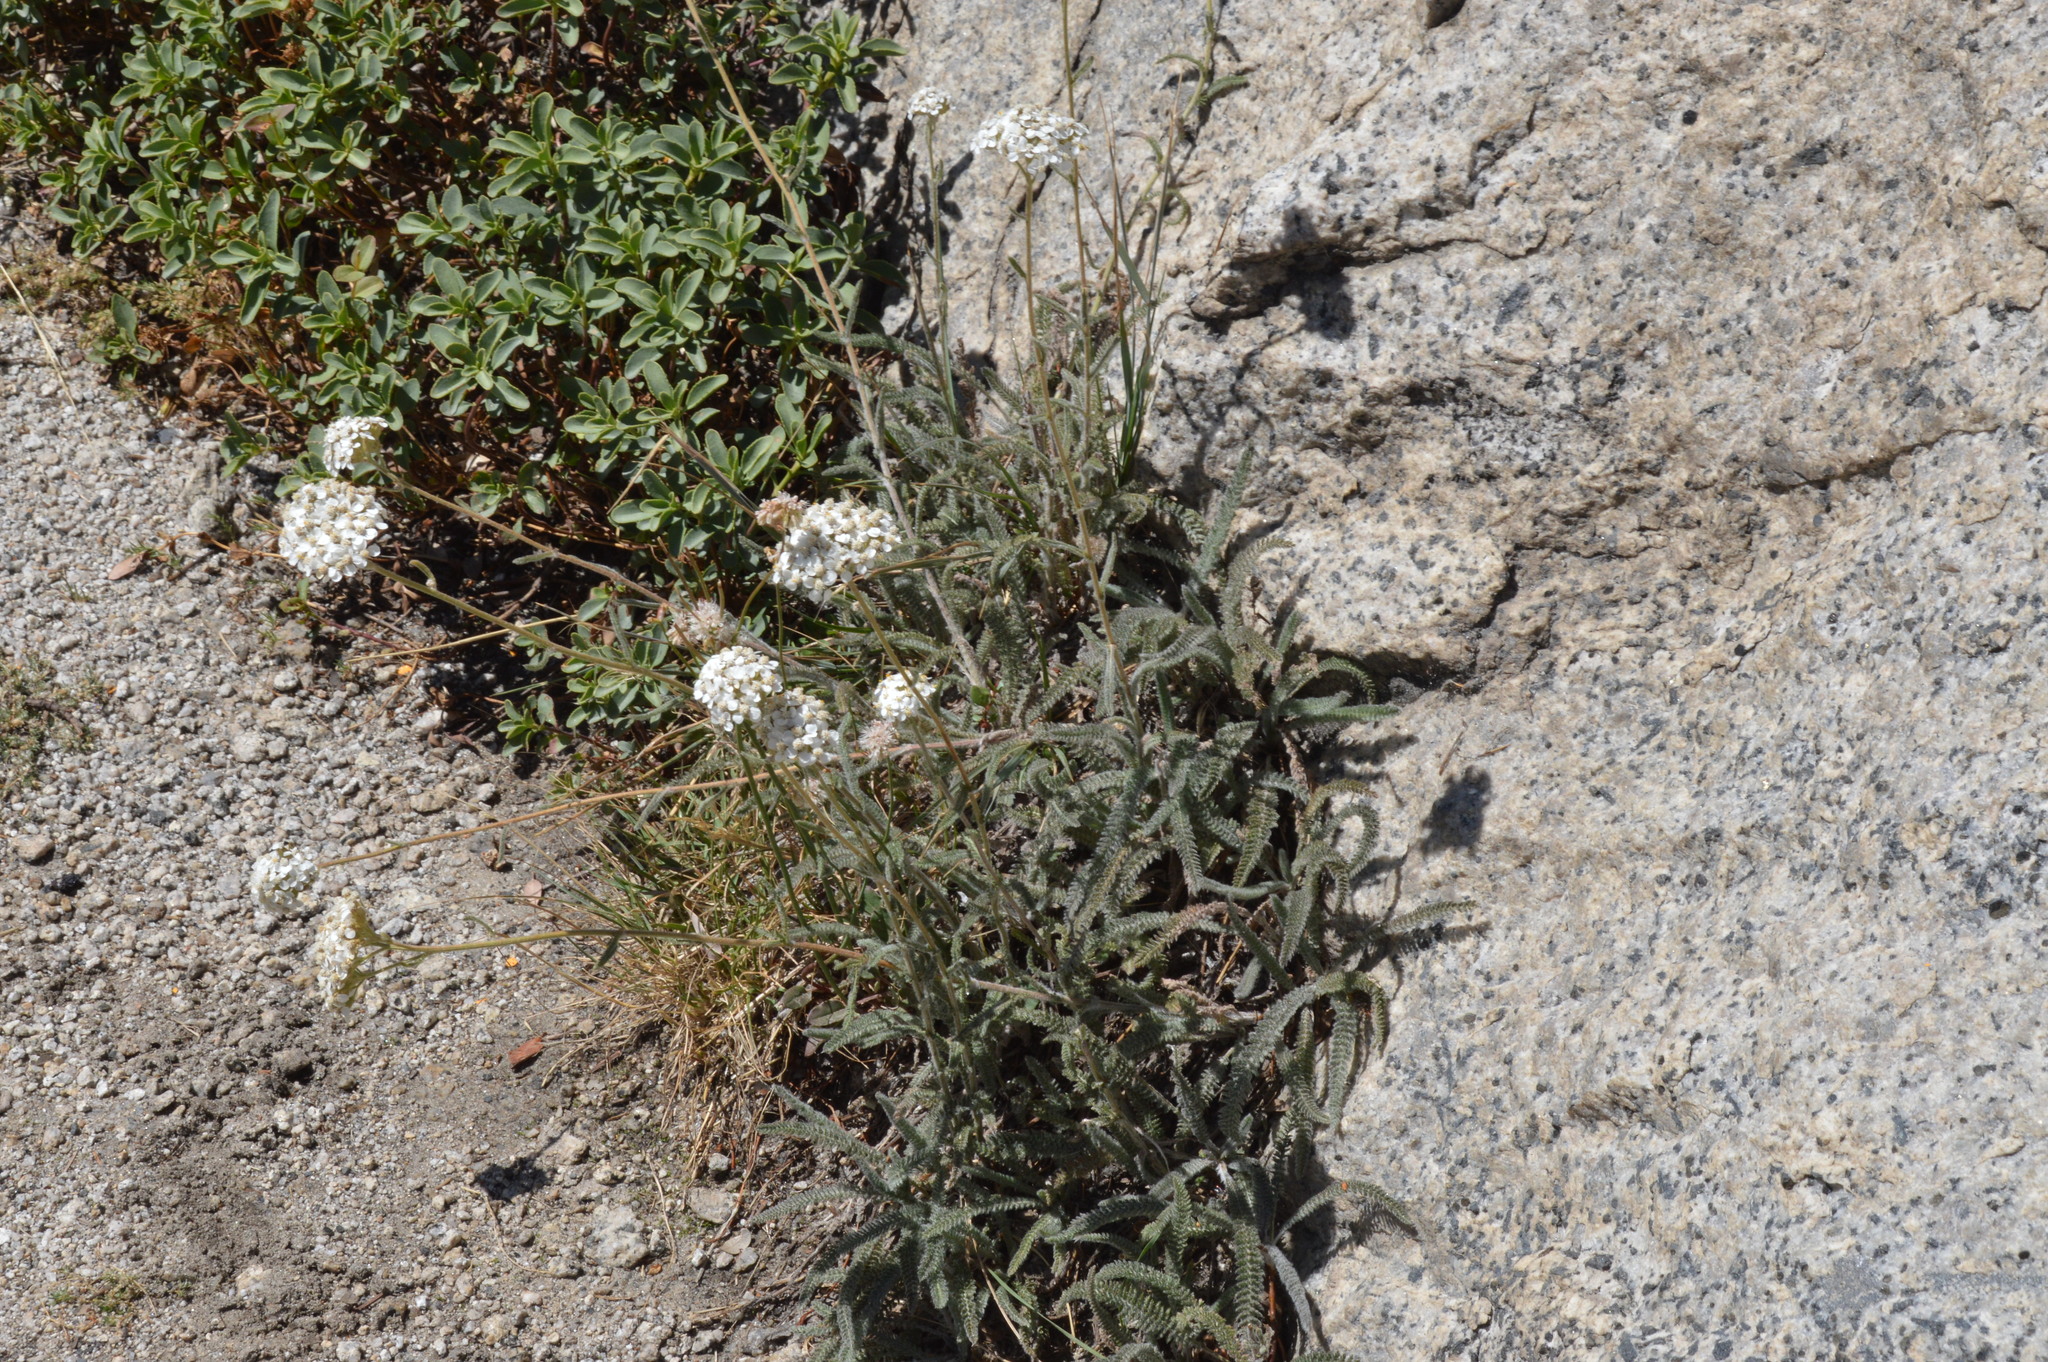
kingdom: Plantae
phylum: Tracheophyta
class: Magnoliopsida
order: Asterales
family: Asteraceae
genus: Achillea
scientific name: Achillea millefolium
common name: Yarrow
